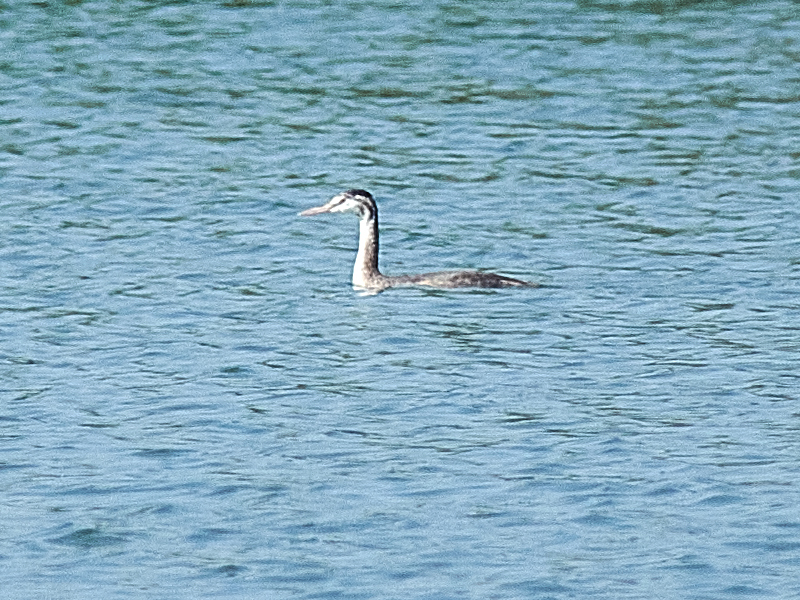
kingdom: Animalia
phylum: Chordata
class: Aves
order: Podicipediformes
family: Podicipedidae
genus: Podiceps
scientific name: Podiceps cristatus
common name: Great crested grebe
